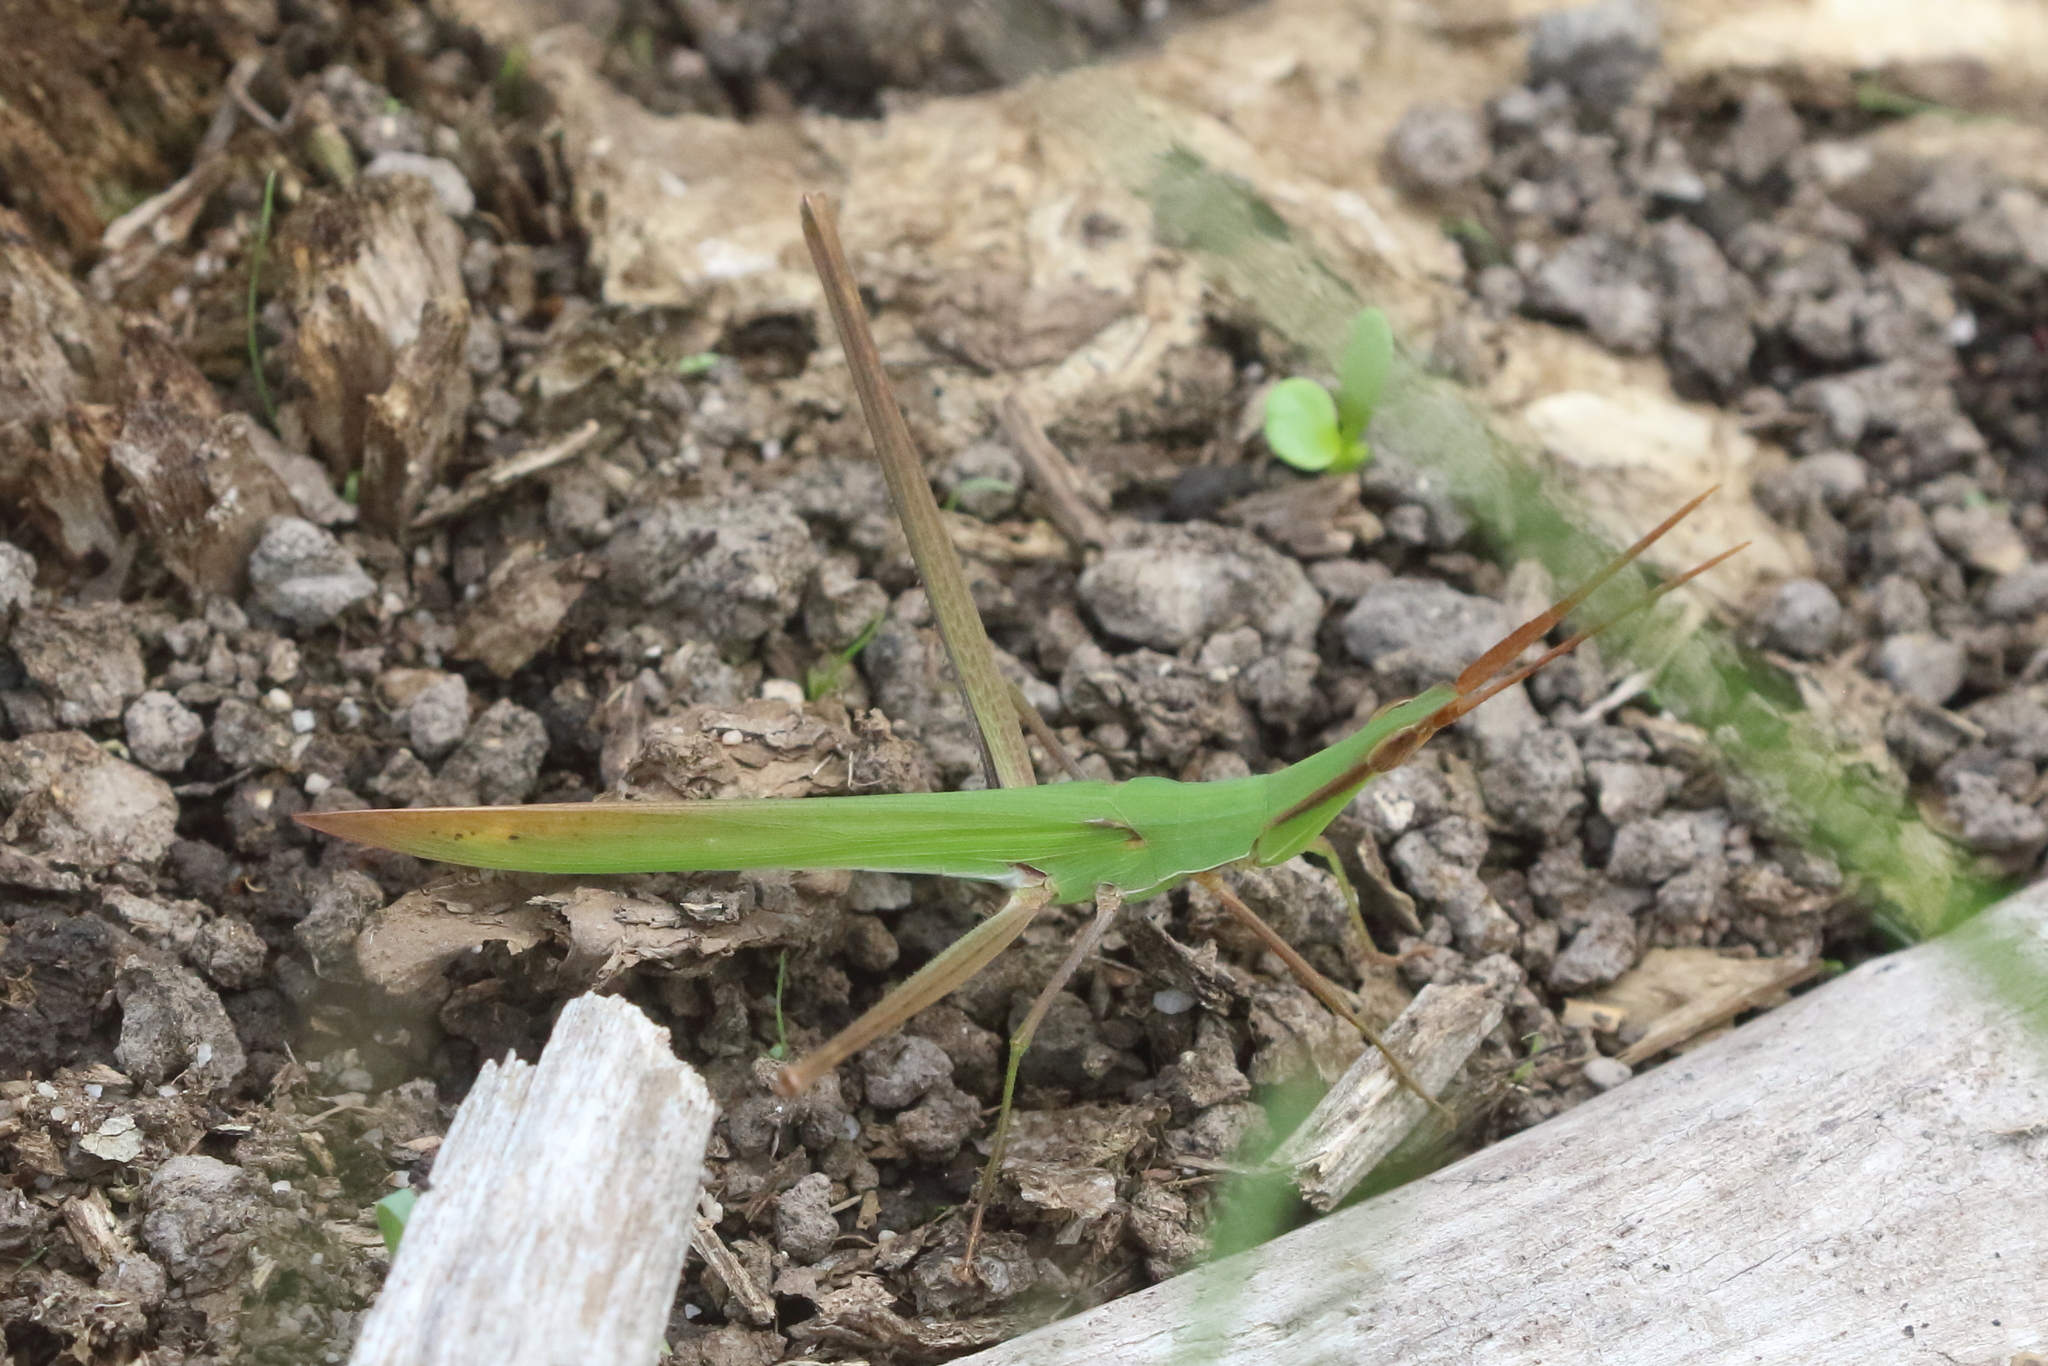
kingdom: Animalia
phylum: Arthropoda
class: Insecta
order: Orthoptera
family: Acrididae
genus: Acrida
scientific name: Acrida conica
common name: Giant green slantface
